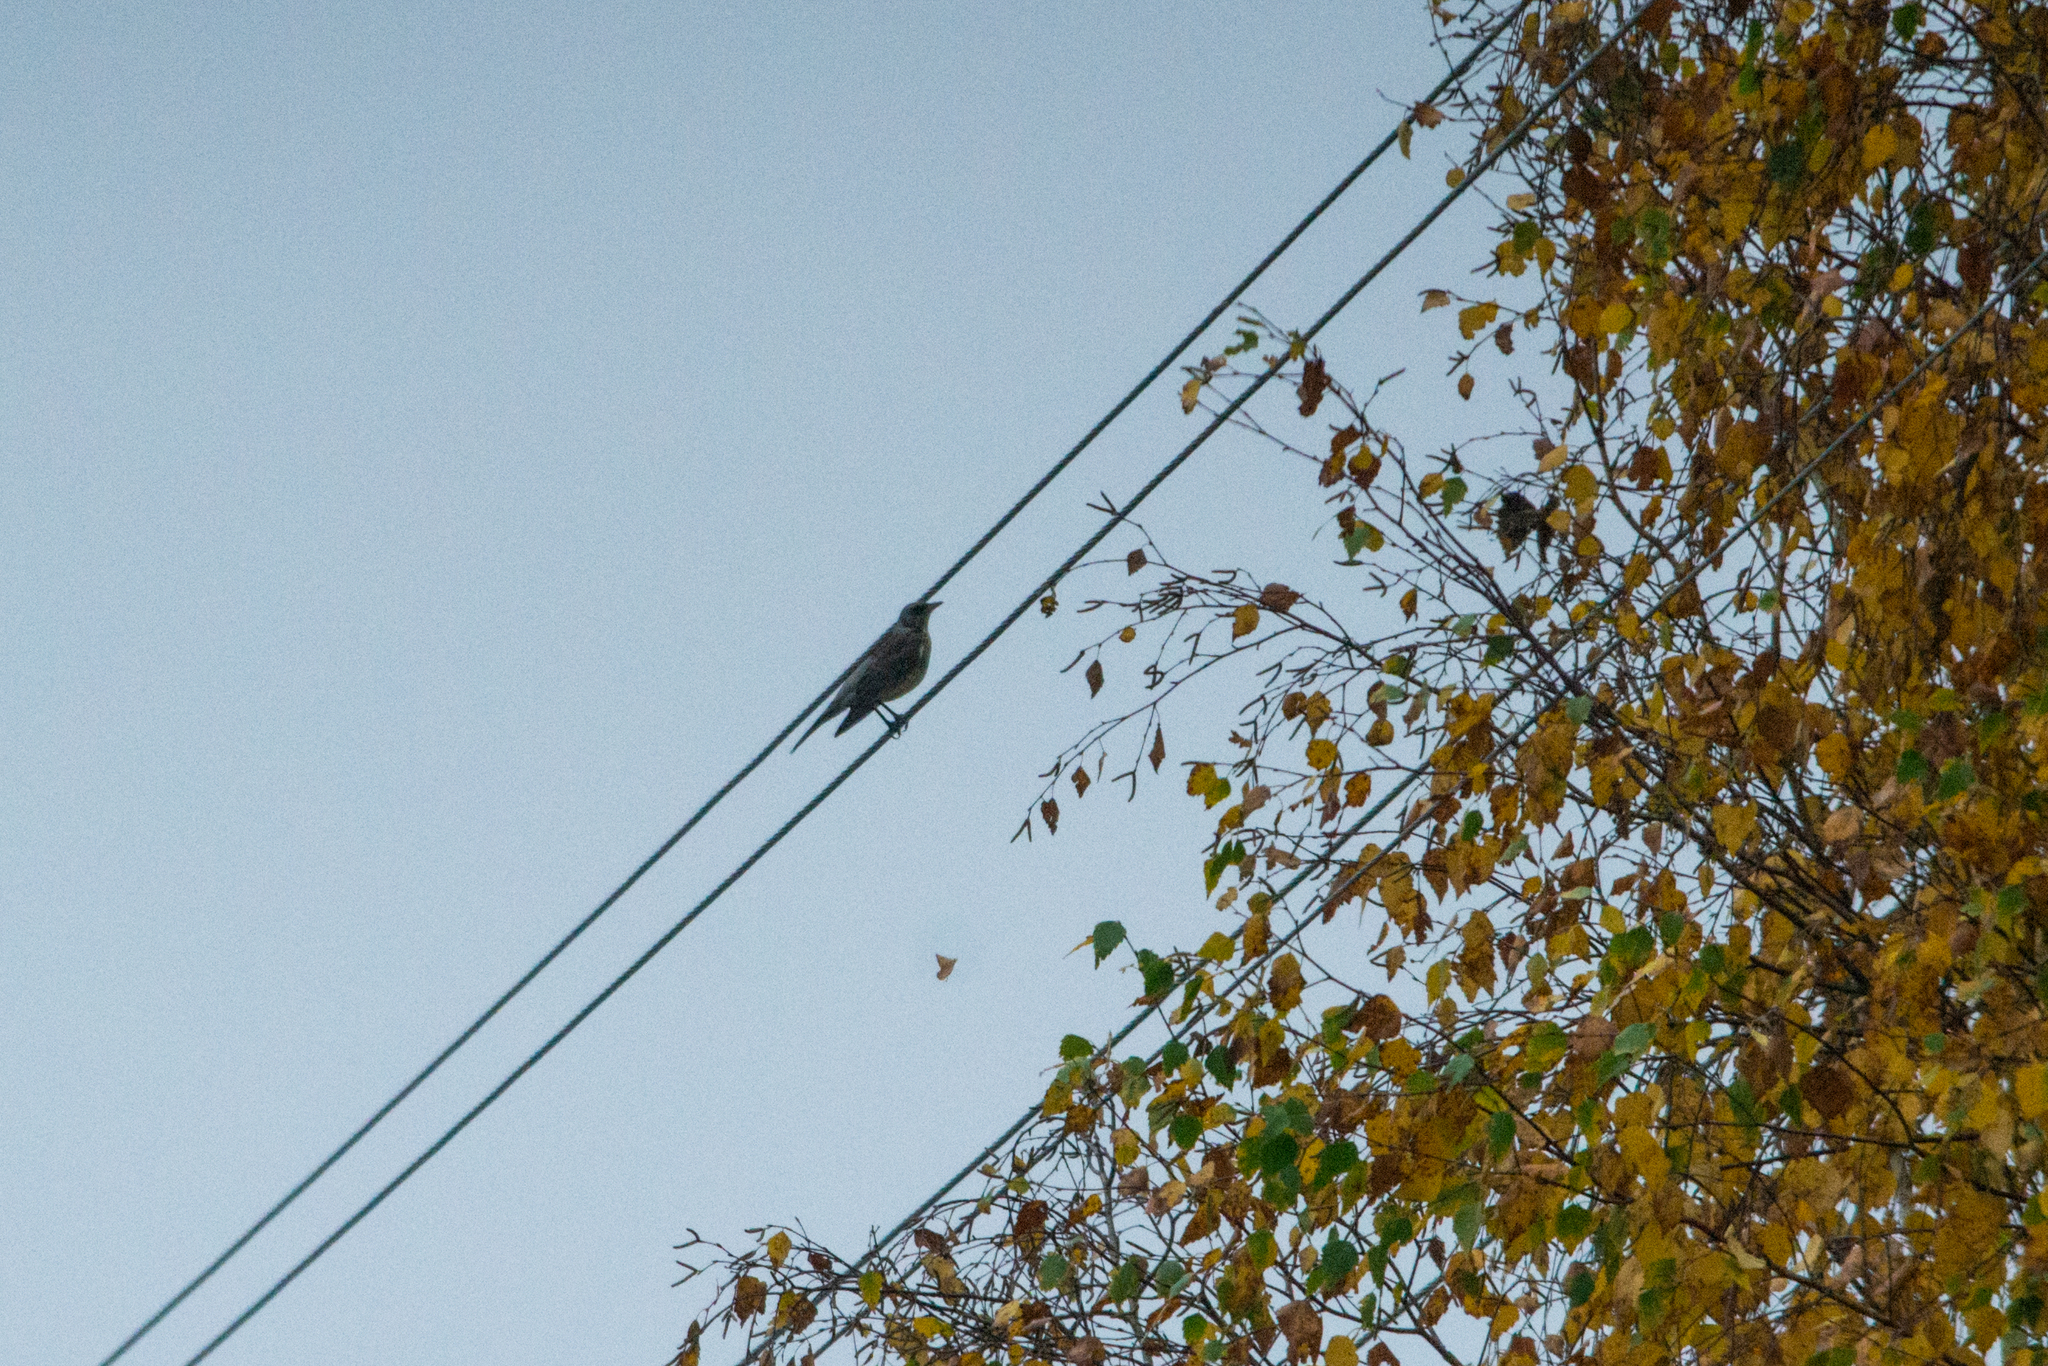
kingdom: Animalia
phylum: Chordata
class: Aves
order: Passeriformes
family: Turdidae
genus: Turdus
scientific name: Turdus pilaris
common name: Fieldfare
